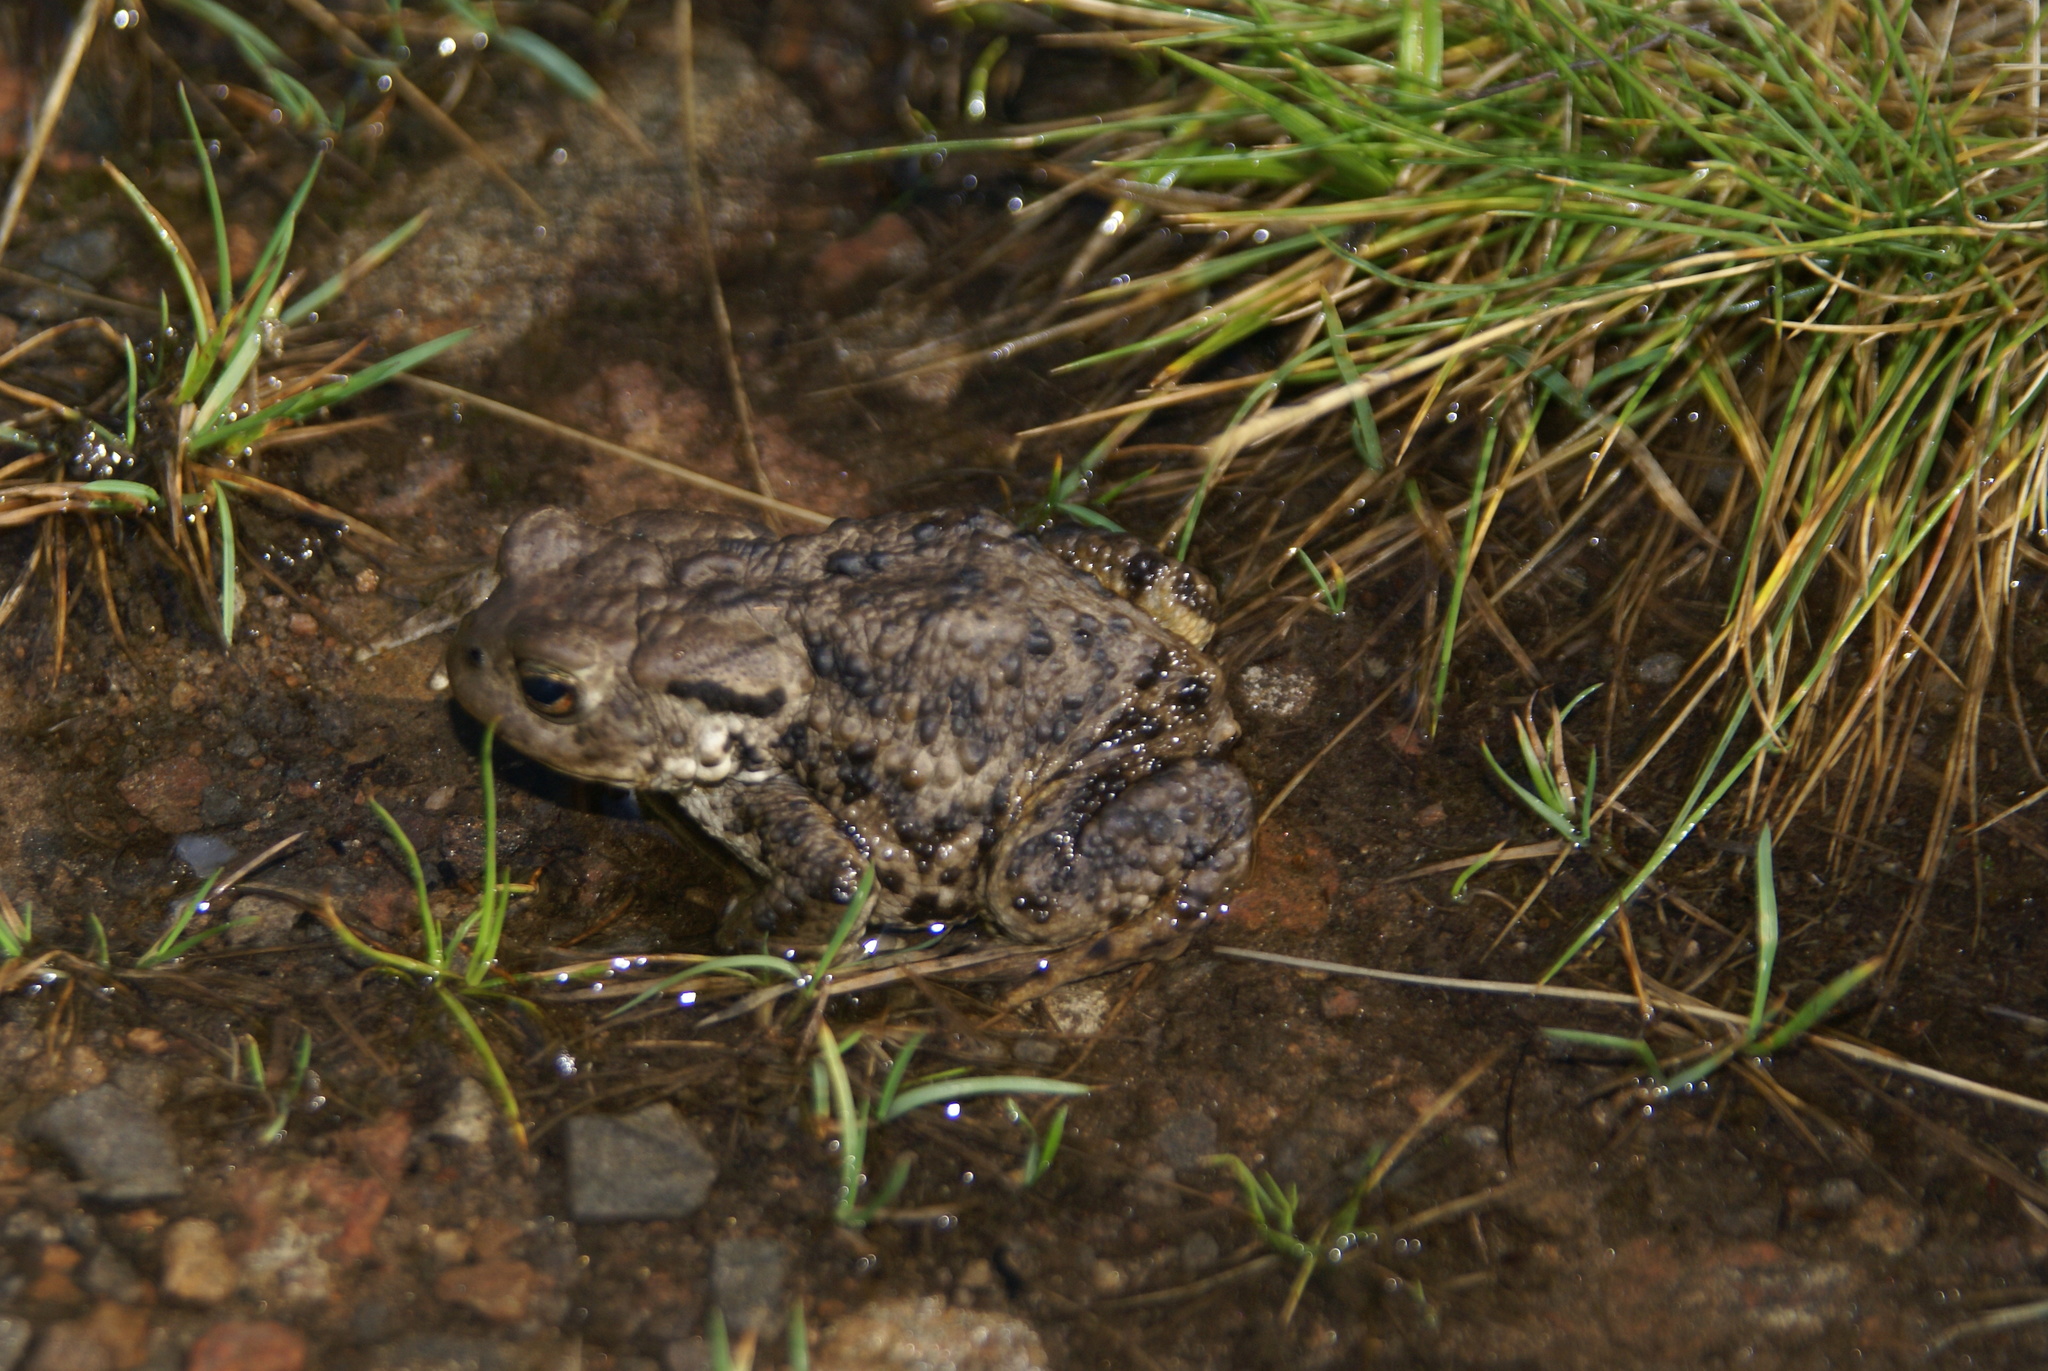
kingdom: Animalia
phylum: Chordata
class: Amphibia
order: Anura
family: Bufonidae
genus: Bufo
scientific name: Bufo bufo
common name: Common toad
